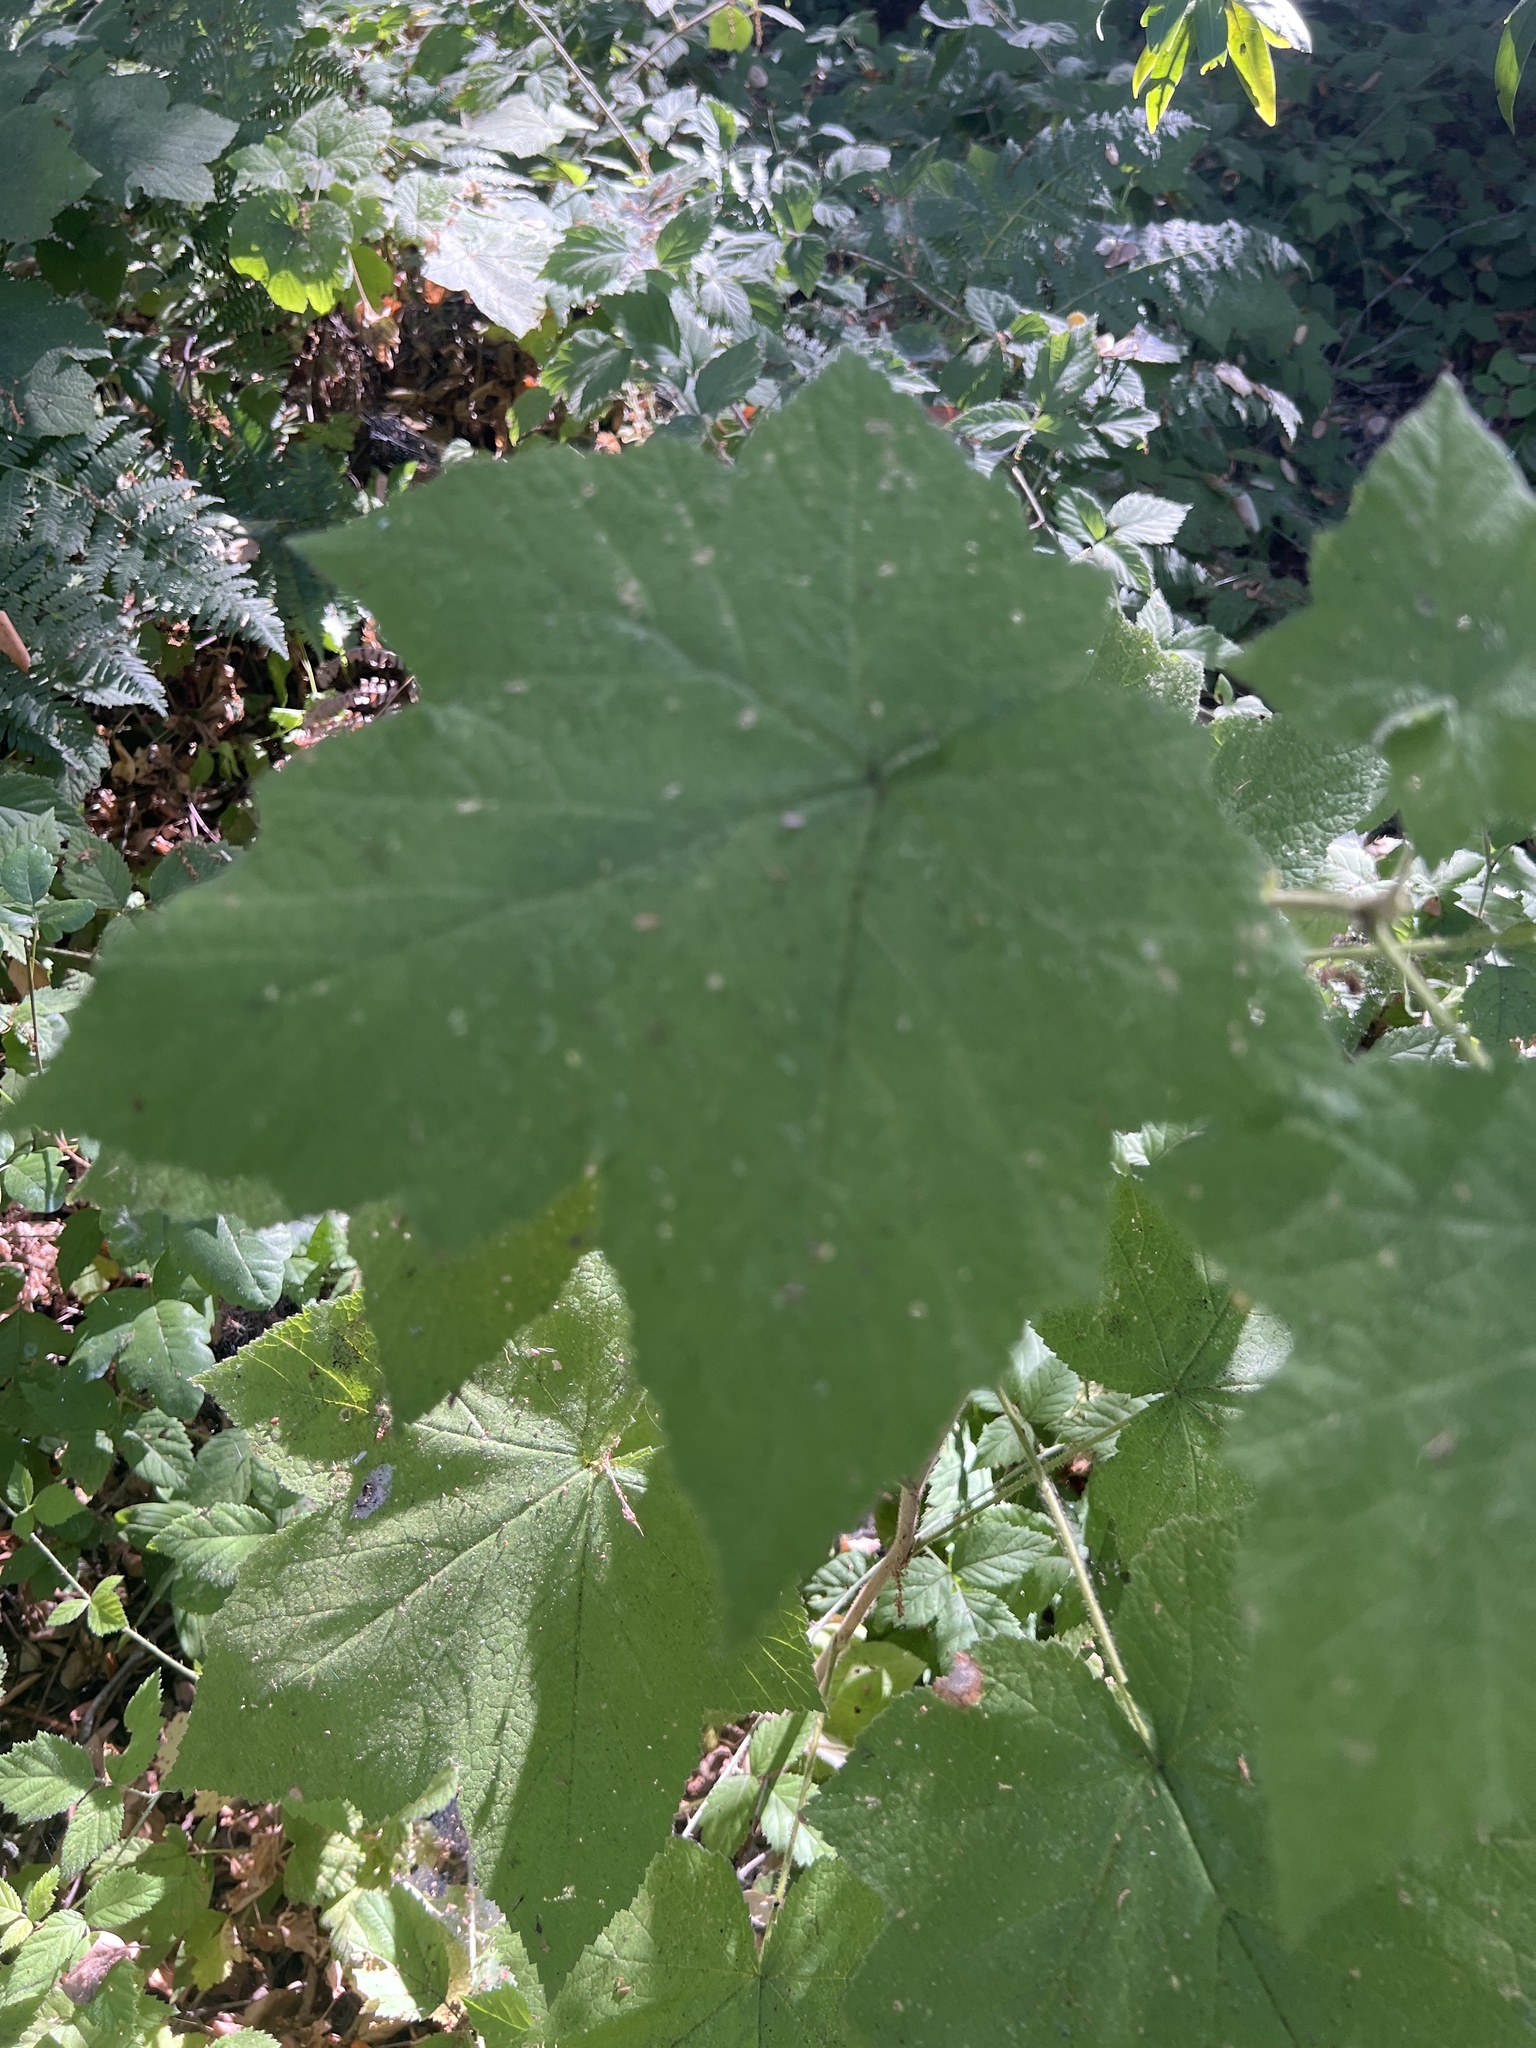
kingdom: Plantae
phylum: Tracheophyta
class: Magnoliopsida
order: Rosales
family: Rosaceae
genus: Rubus
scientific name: Rubus parviflorus
